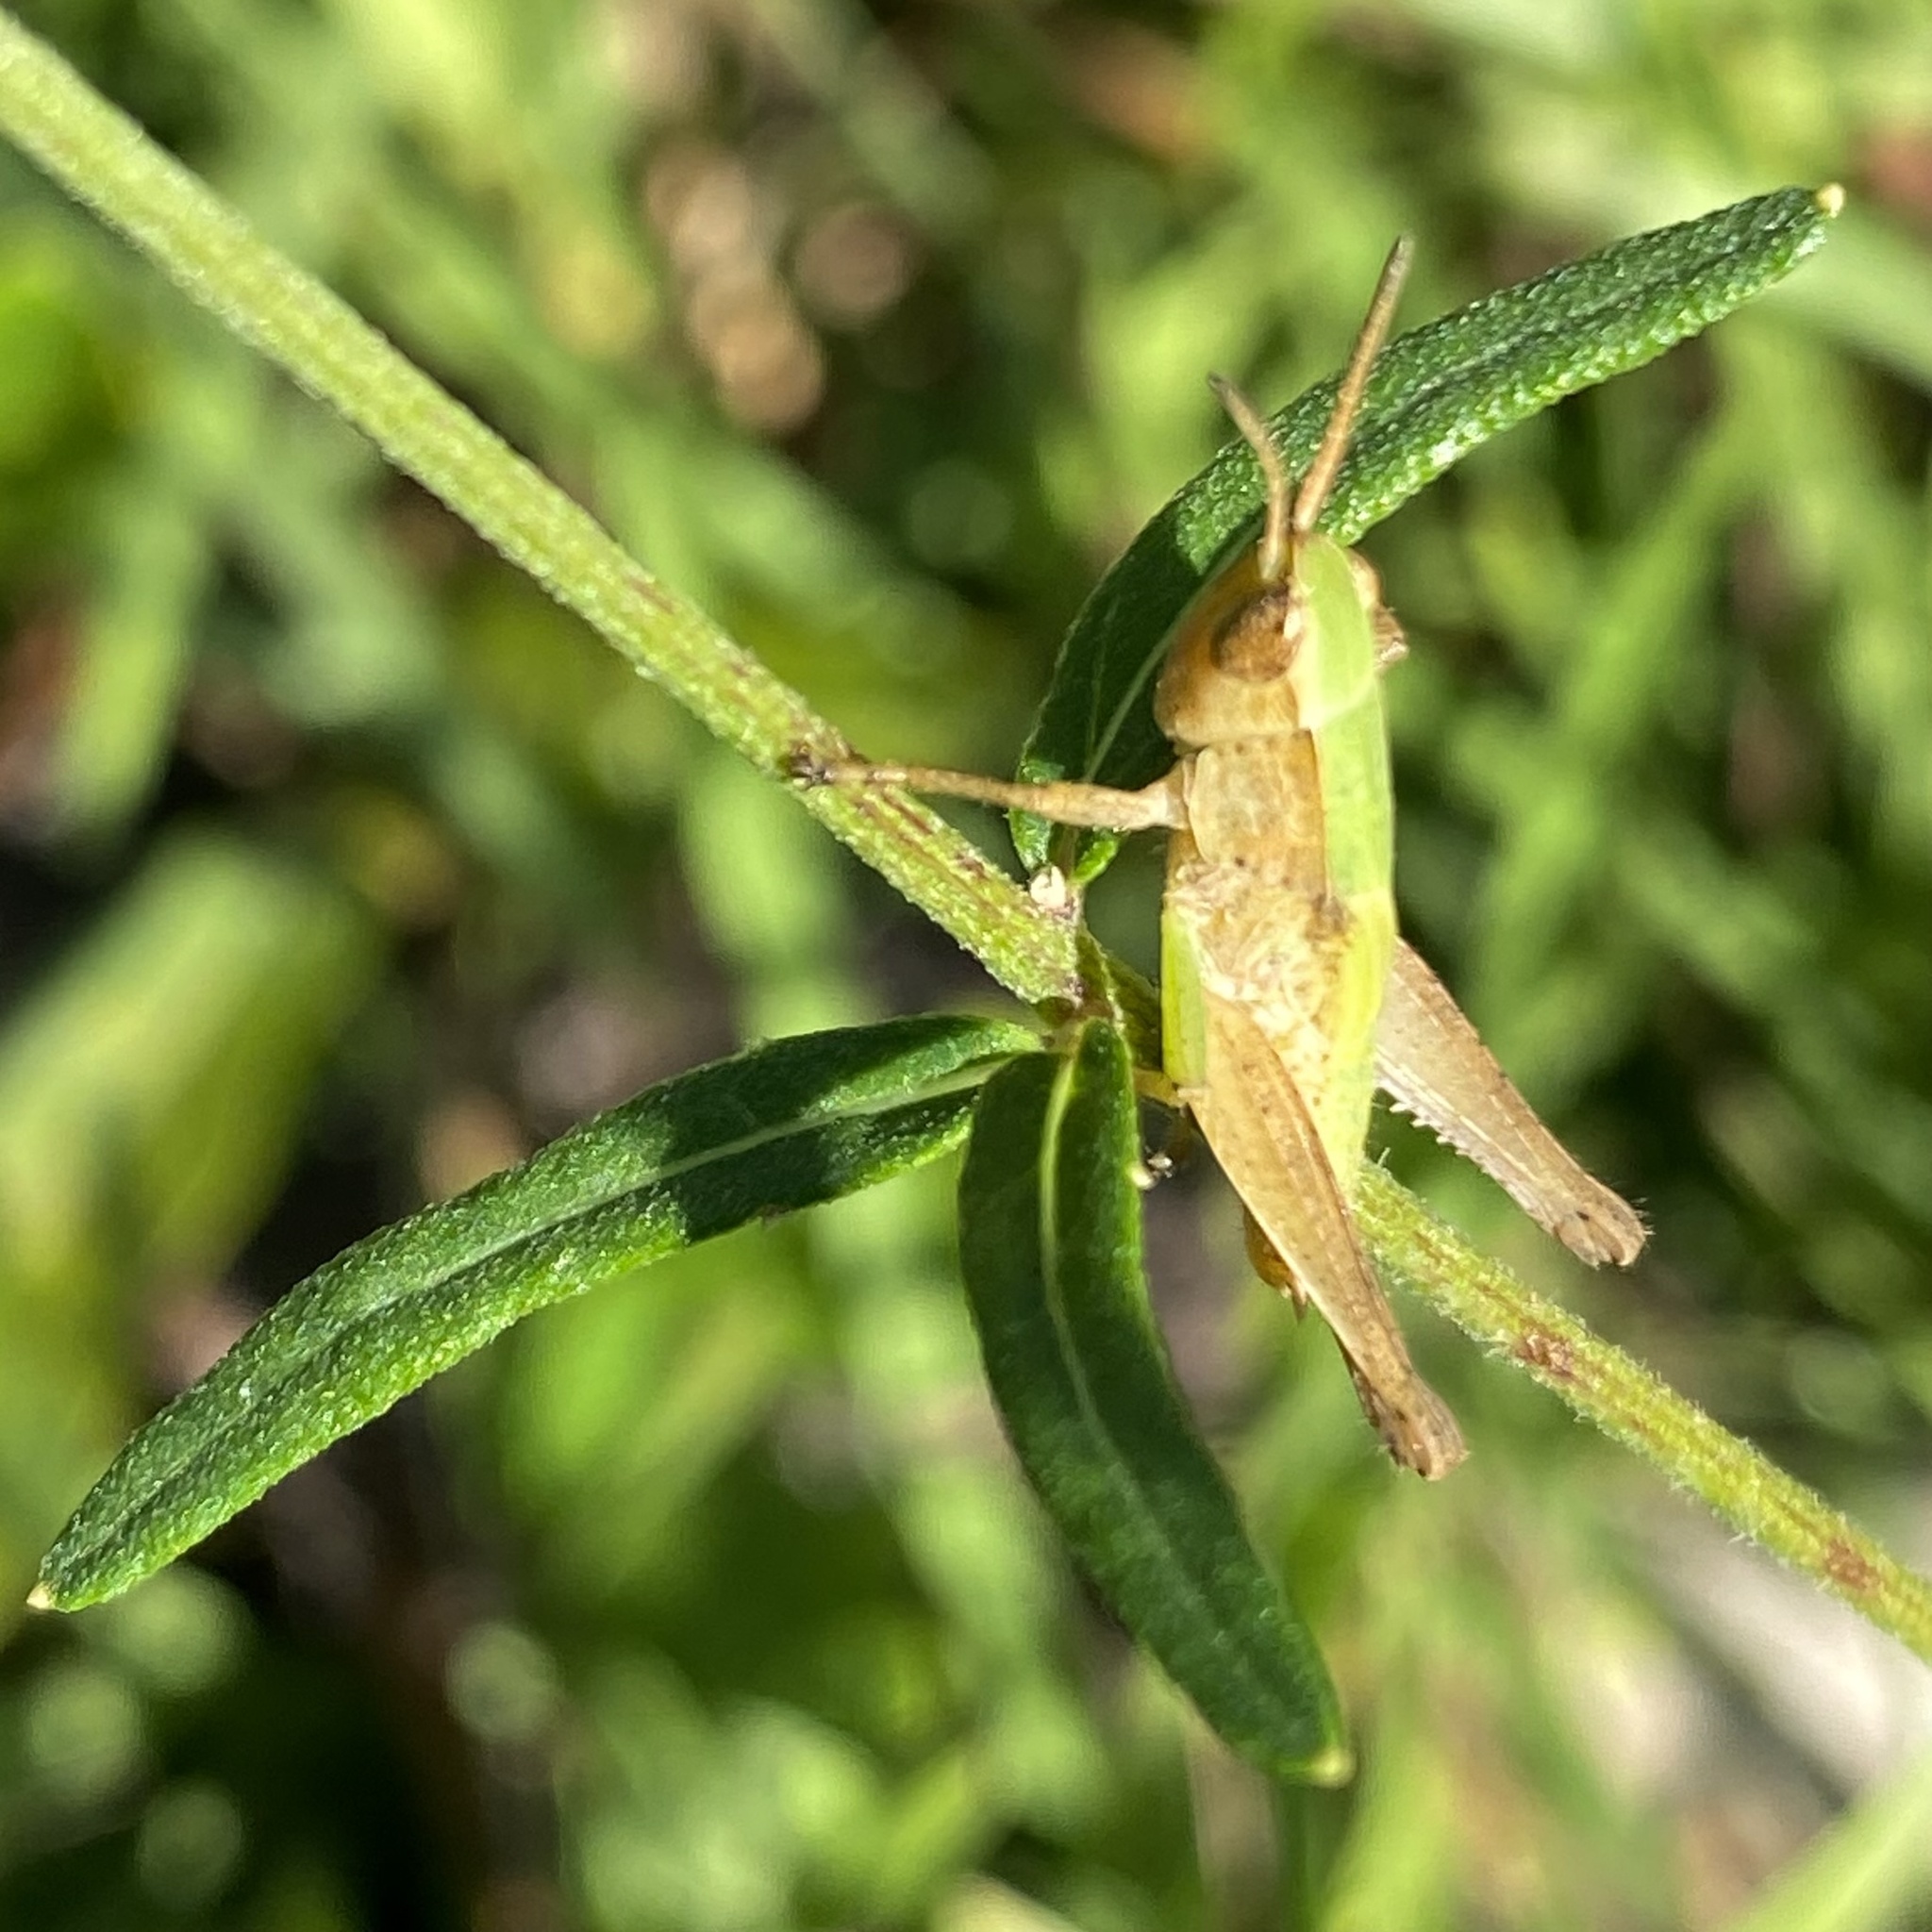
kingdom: Animalia
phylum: Arthropoda
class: Insecta
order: Orthoptera
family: Acrididae
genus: Dichromorpha
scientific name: Dichromorpha viridis
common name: Short-winged green grasshopper
